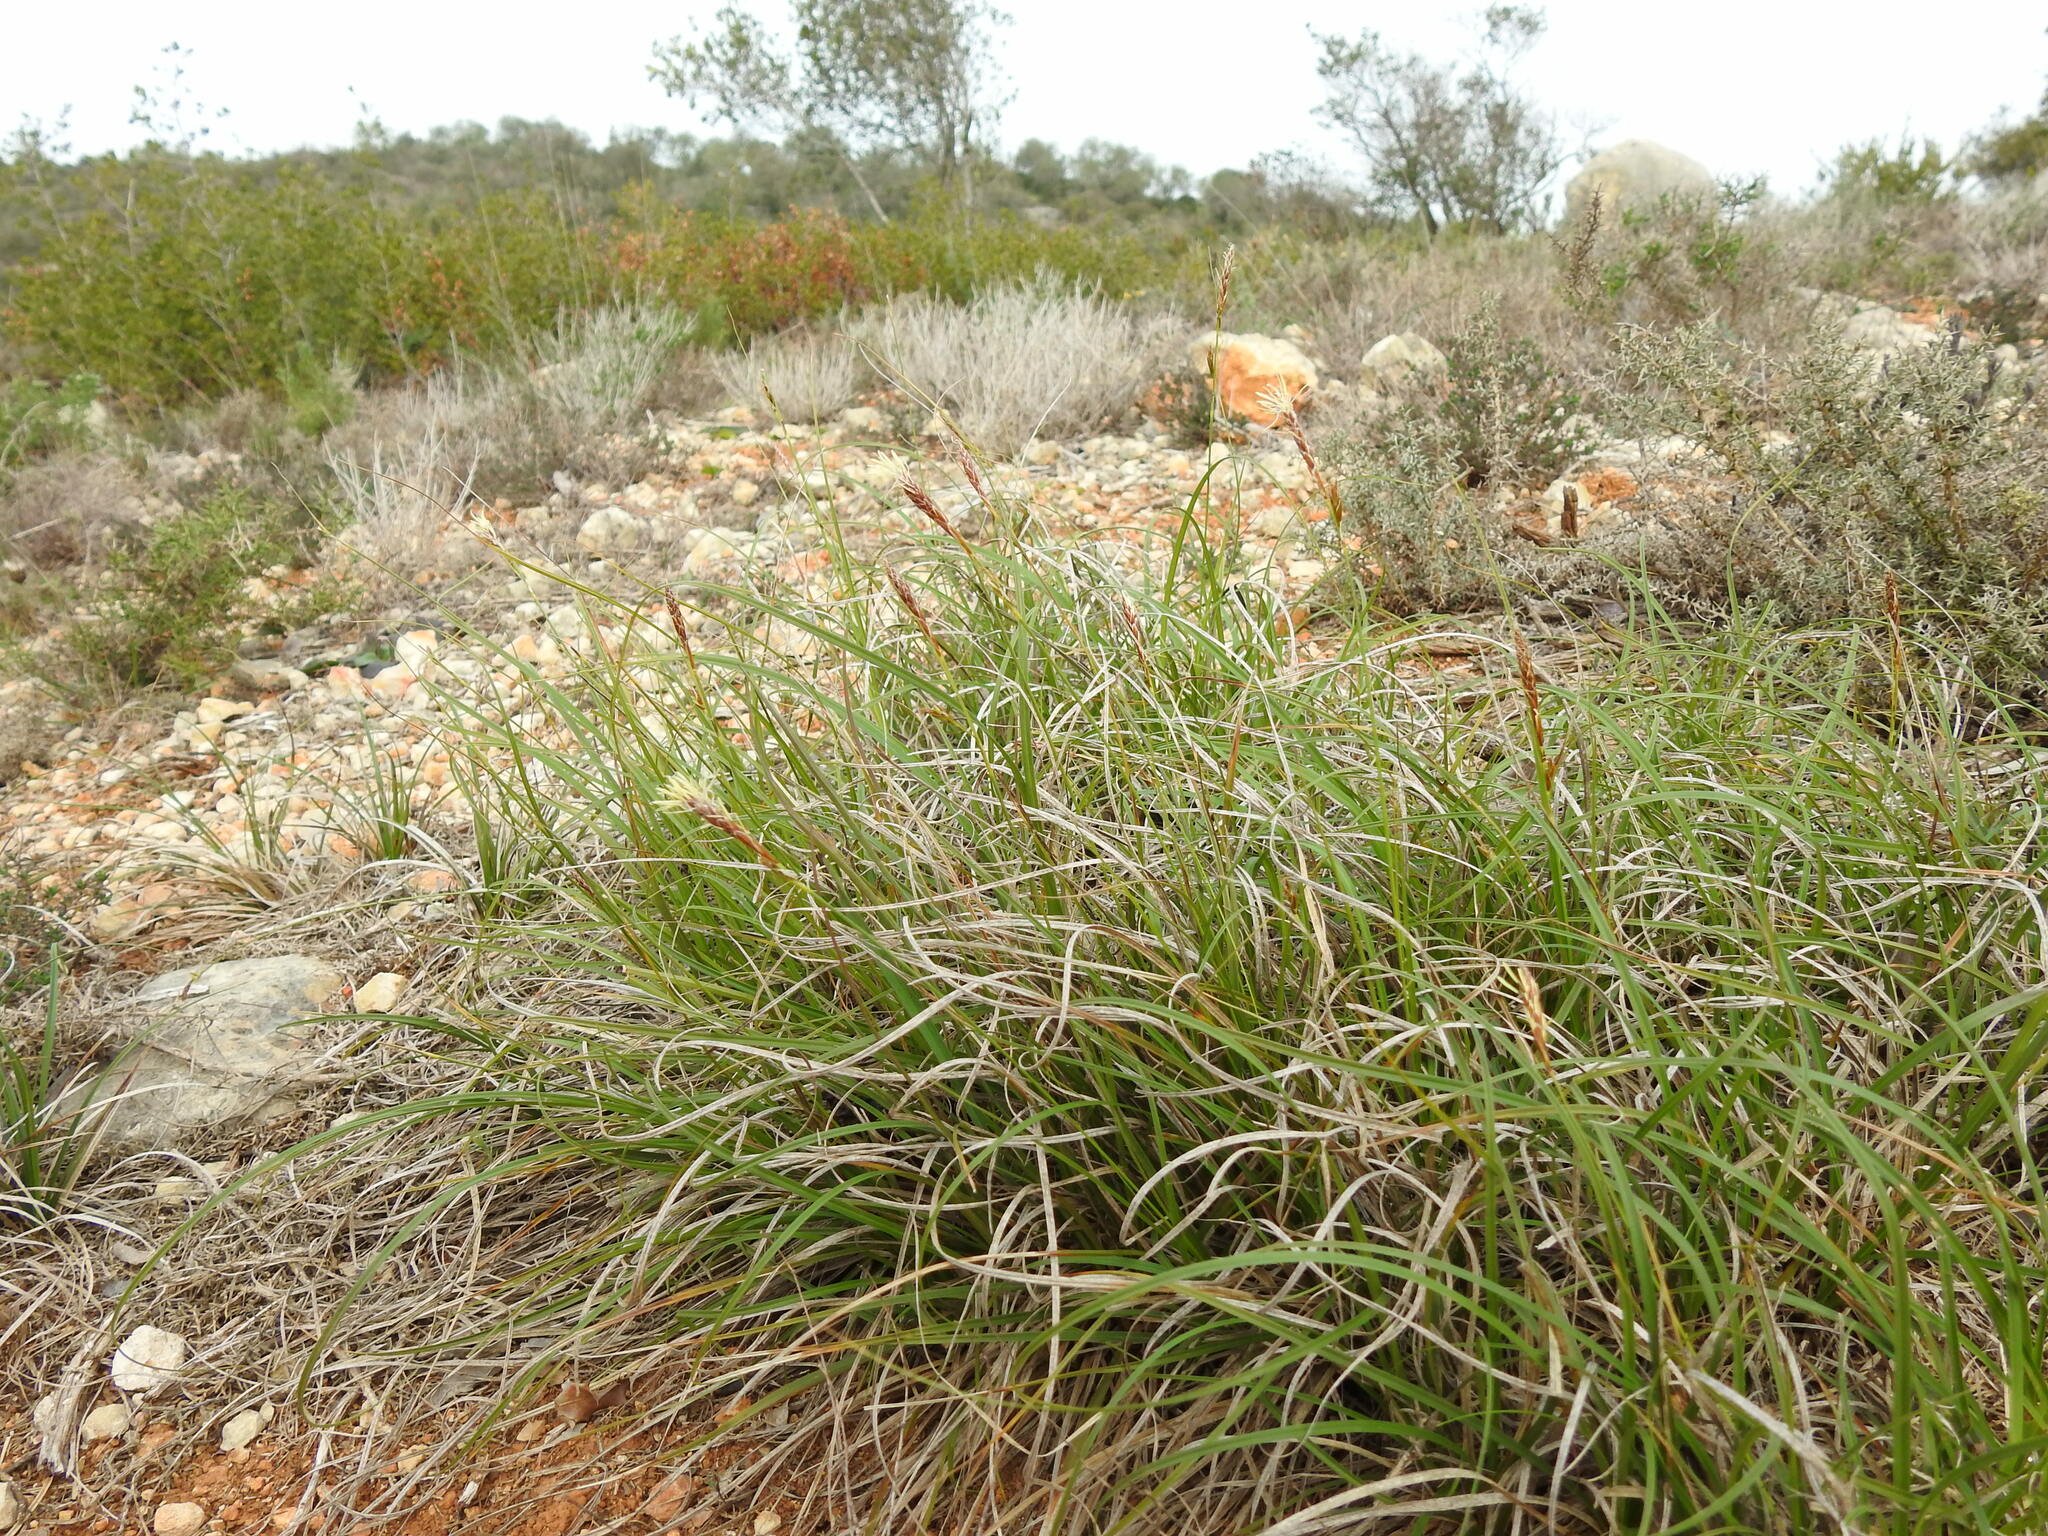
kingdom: Plantae
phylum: Tracheophyta
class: Liliopsida
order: Poales
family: Cyperaceae
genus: Carex
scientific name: Carex halleriana
